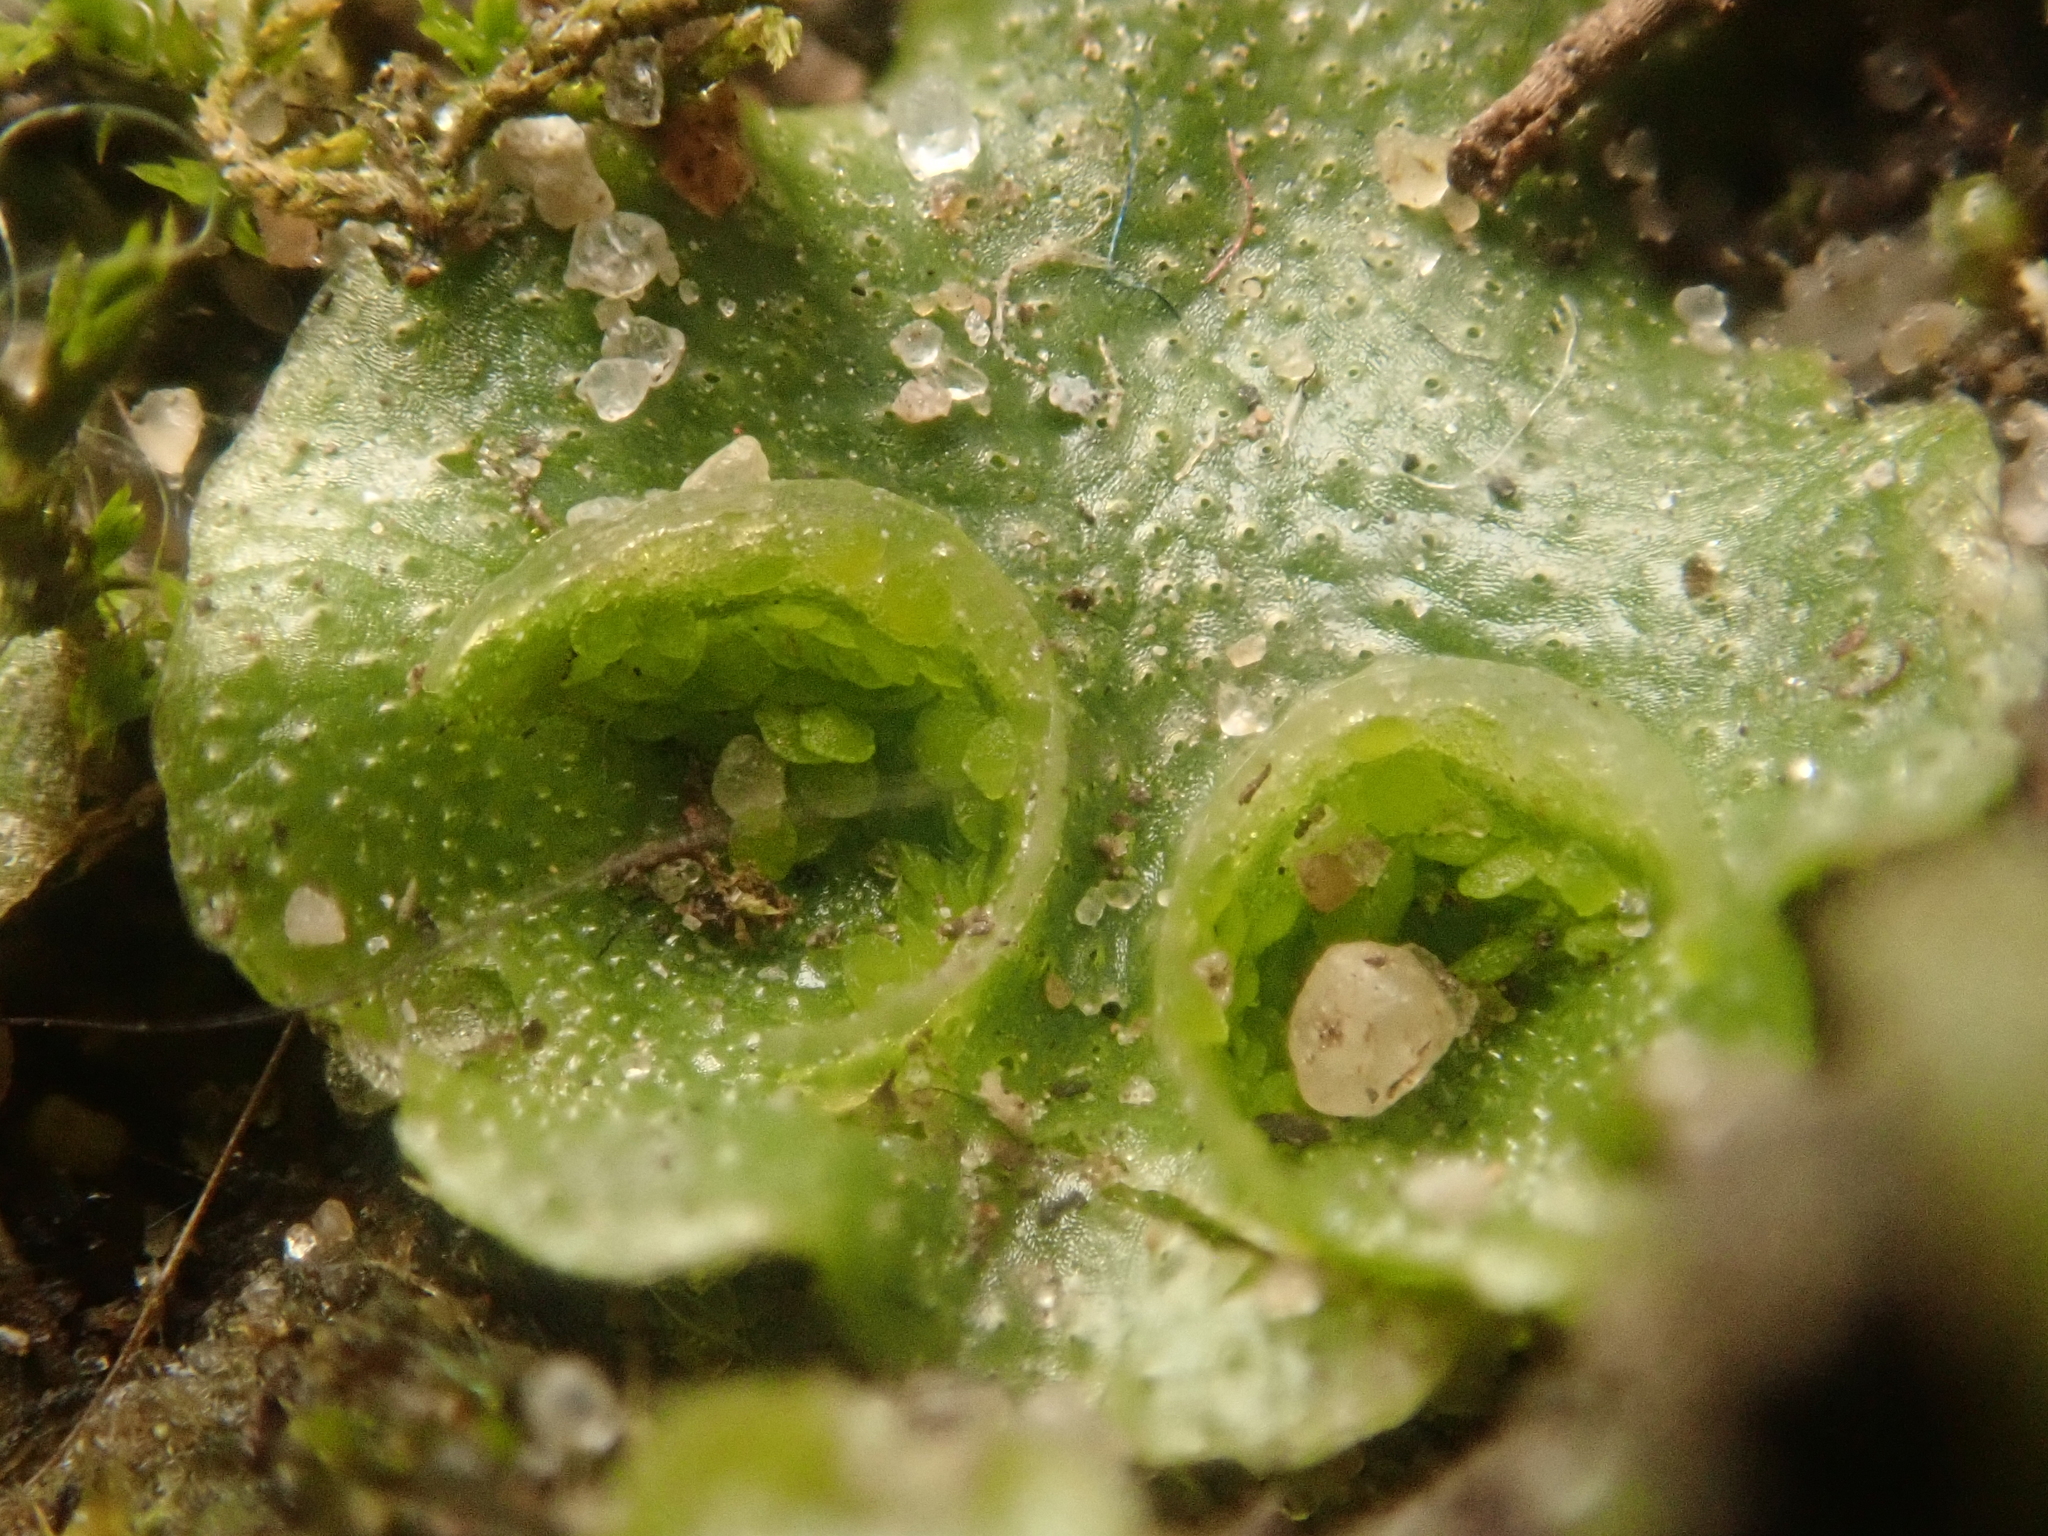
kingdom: Plantae
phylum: Marchantiophyta
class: Marchantiopsida
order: Lunulariales
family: Lunulariaceae
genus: Lunularia
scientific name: Lunularia cruciata
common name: Crescent-cup liverwort
